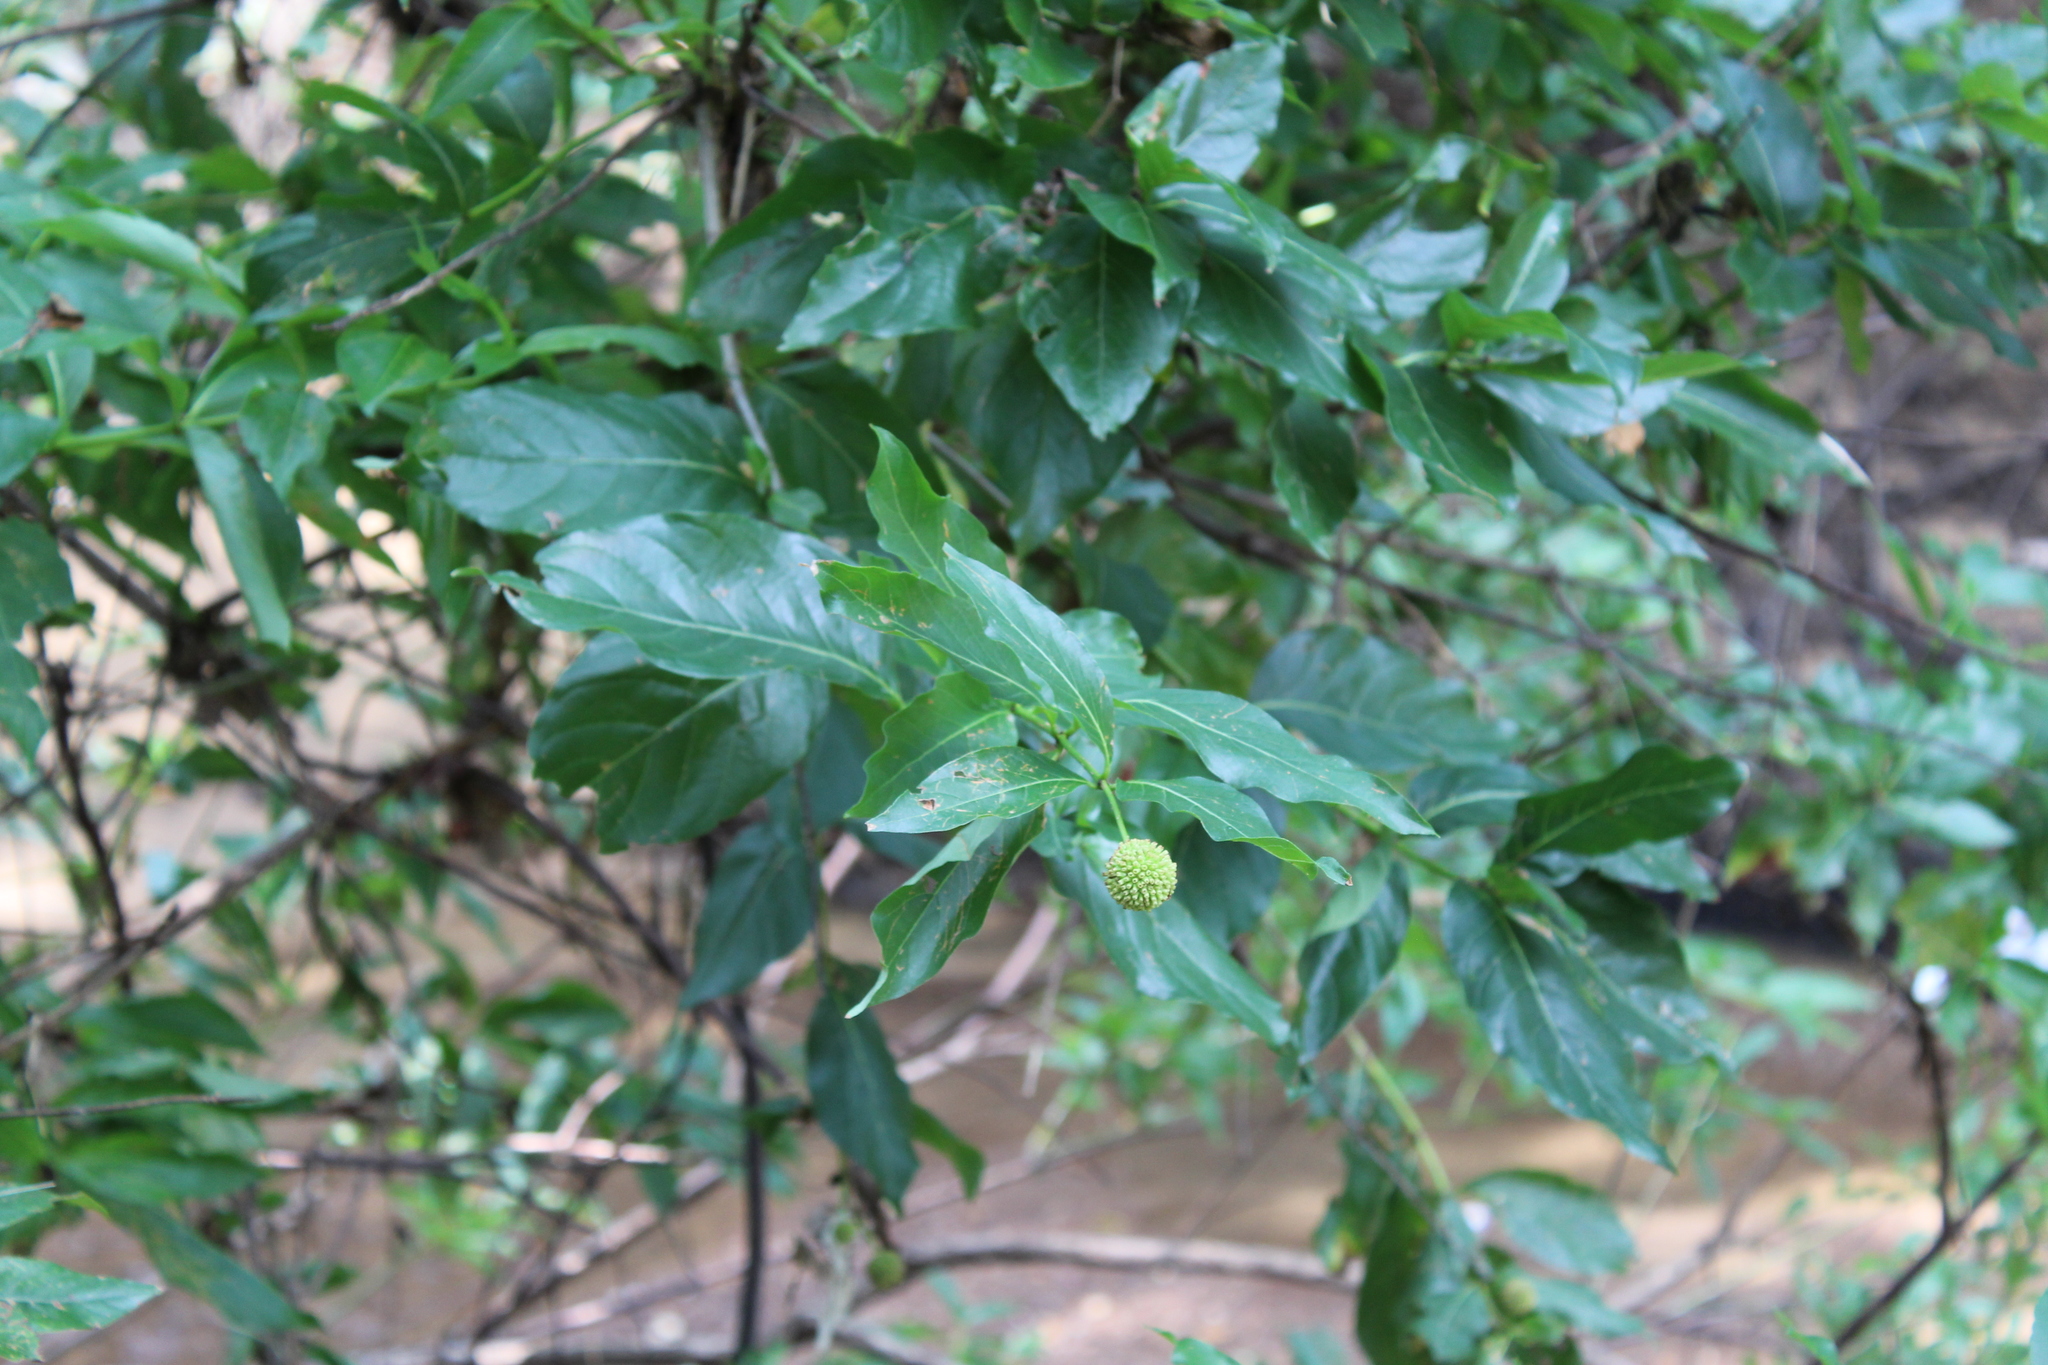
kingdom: Plantae
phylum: Tracheophyta
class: Magnoliopsida
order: Gentianales
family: Rubiaceae
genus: Cephalanthus
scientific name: Cephalanthus occidentalis
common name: Button-willow
